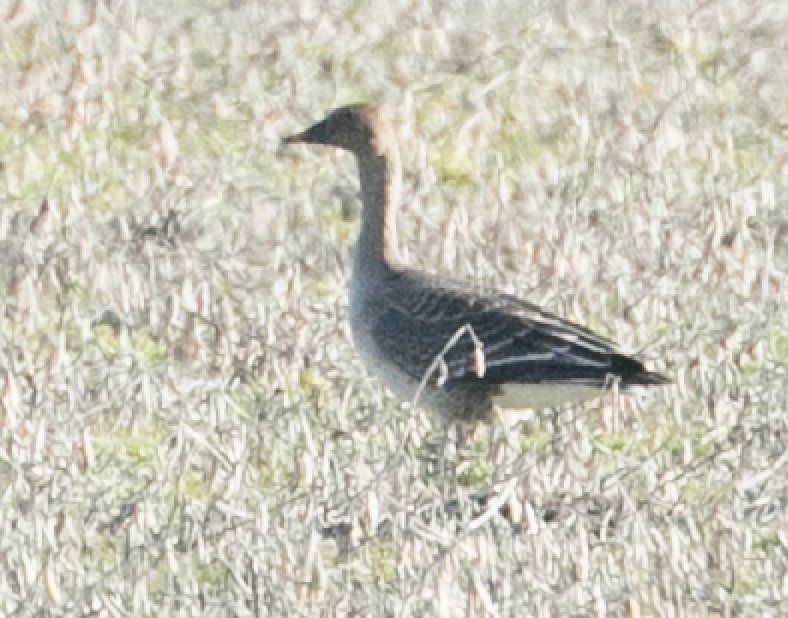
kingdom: Animalia
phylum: Chordata
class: Aves
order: Anseriformes
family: Anatidae
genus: Anser
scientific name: Anser fabalis
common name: Bean goose
